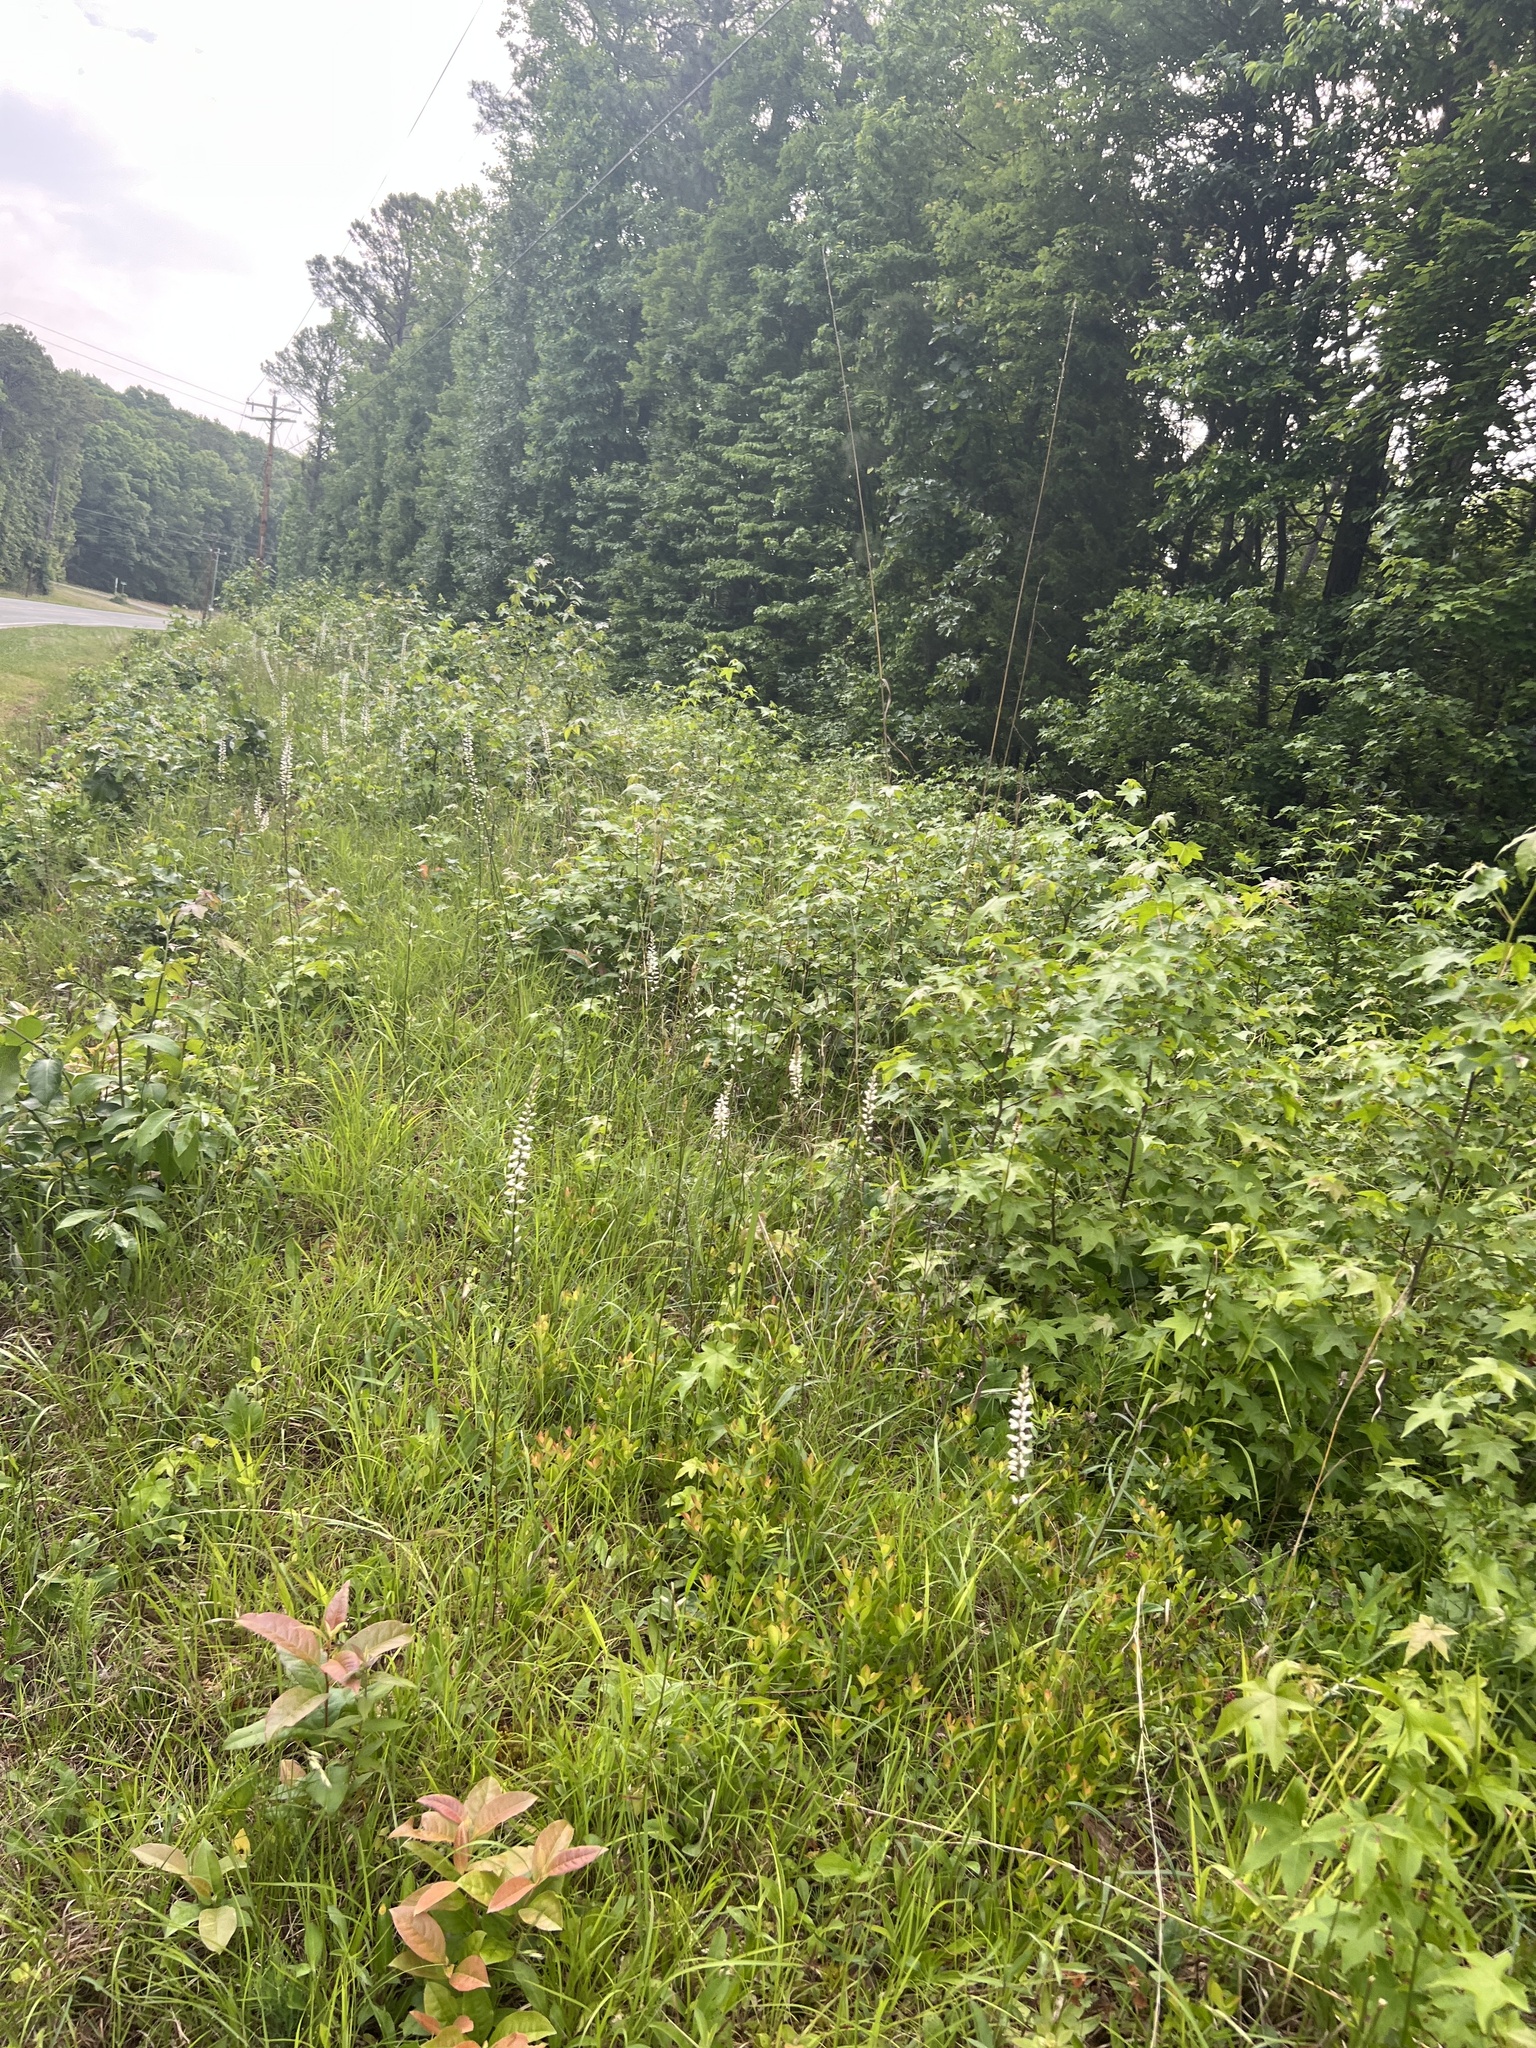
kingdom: Plantae
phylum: Tracheophyta
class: Liliopsida
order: Dioscoreales
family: Nartheciaceae
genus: Aletris
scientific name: Aletris farinosa
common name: Colicroot
